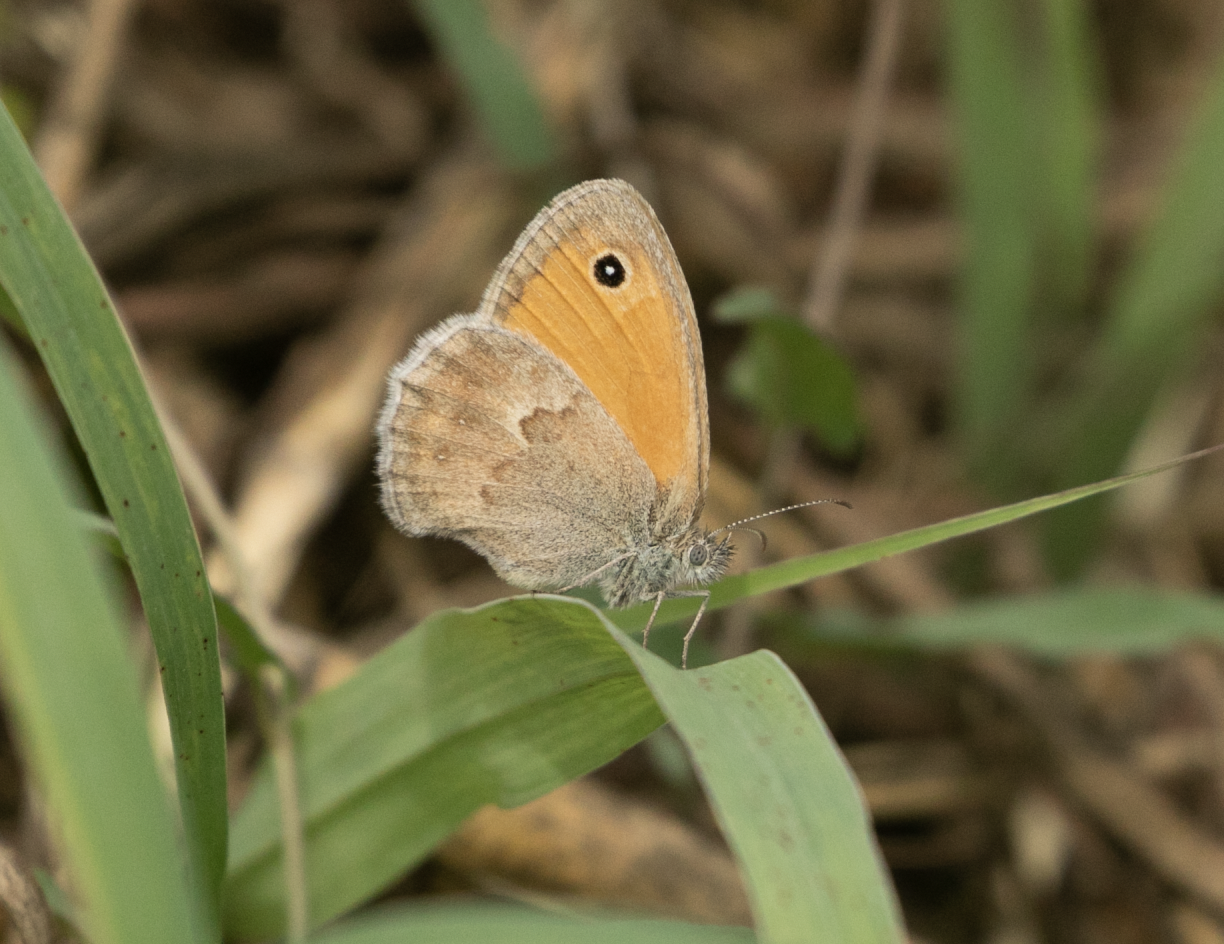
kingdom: Animalia
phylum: Arthropoda
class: Insecta
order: Lepidoptera
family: Nymphalidae
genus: Coenonympha
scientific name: Coenonympha pamphilus
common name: Small heath
